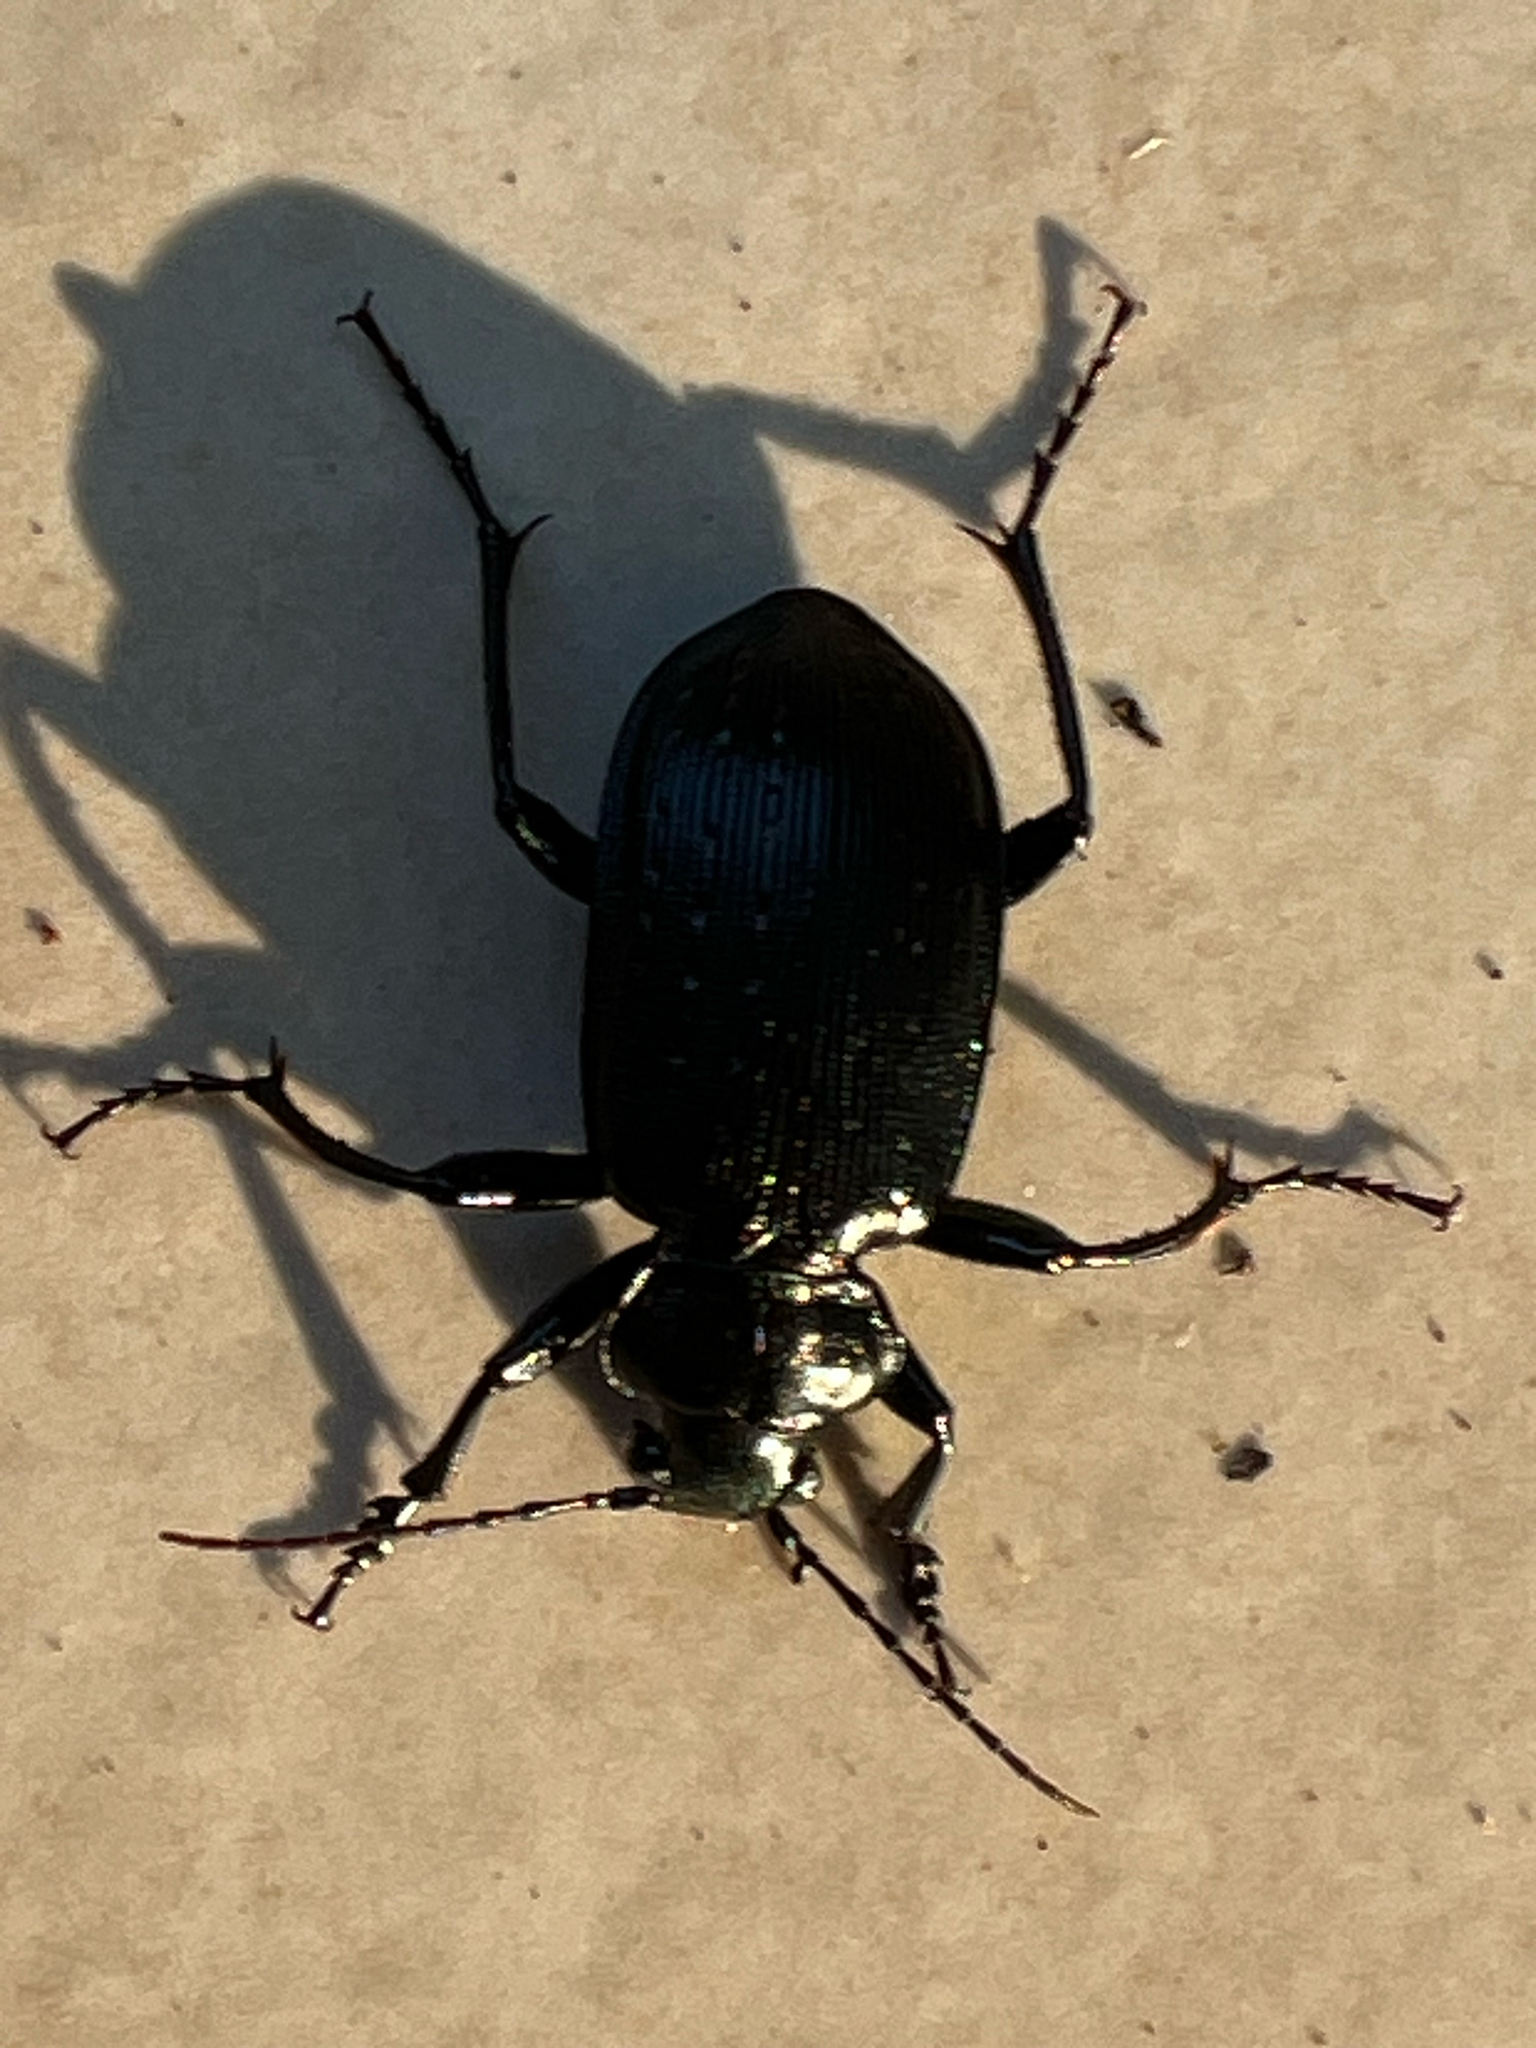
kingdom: Animalia
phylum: Arthropoda
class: Insecta
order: Coleoptera
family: Carabidae
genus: Calosoma
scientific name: Calosoma sayi
